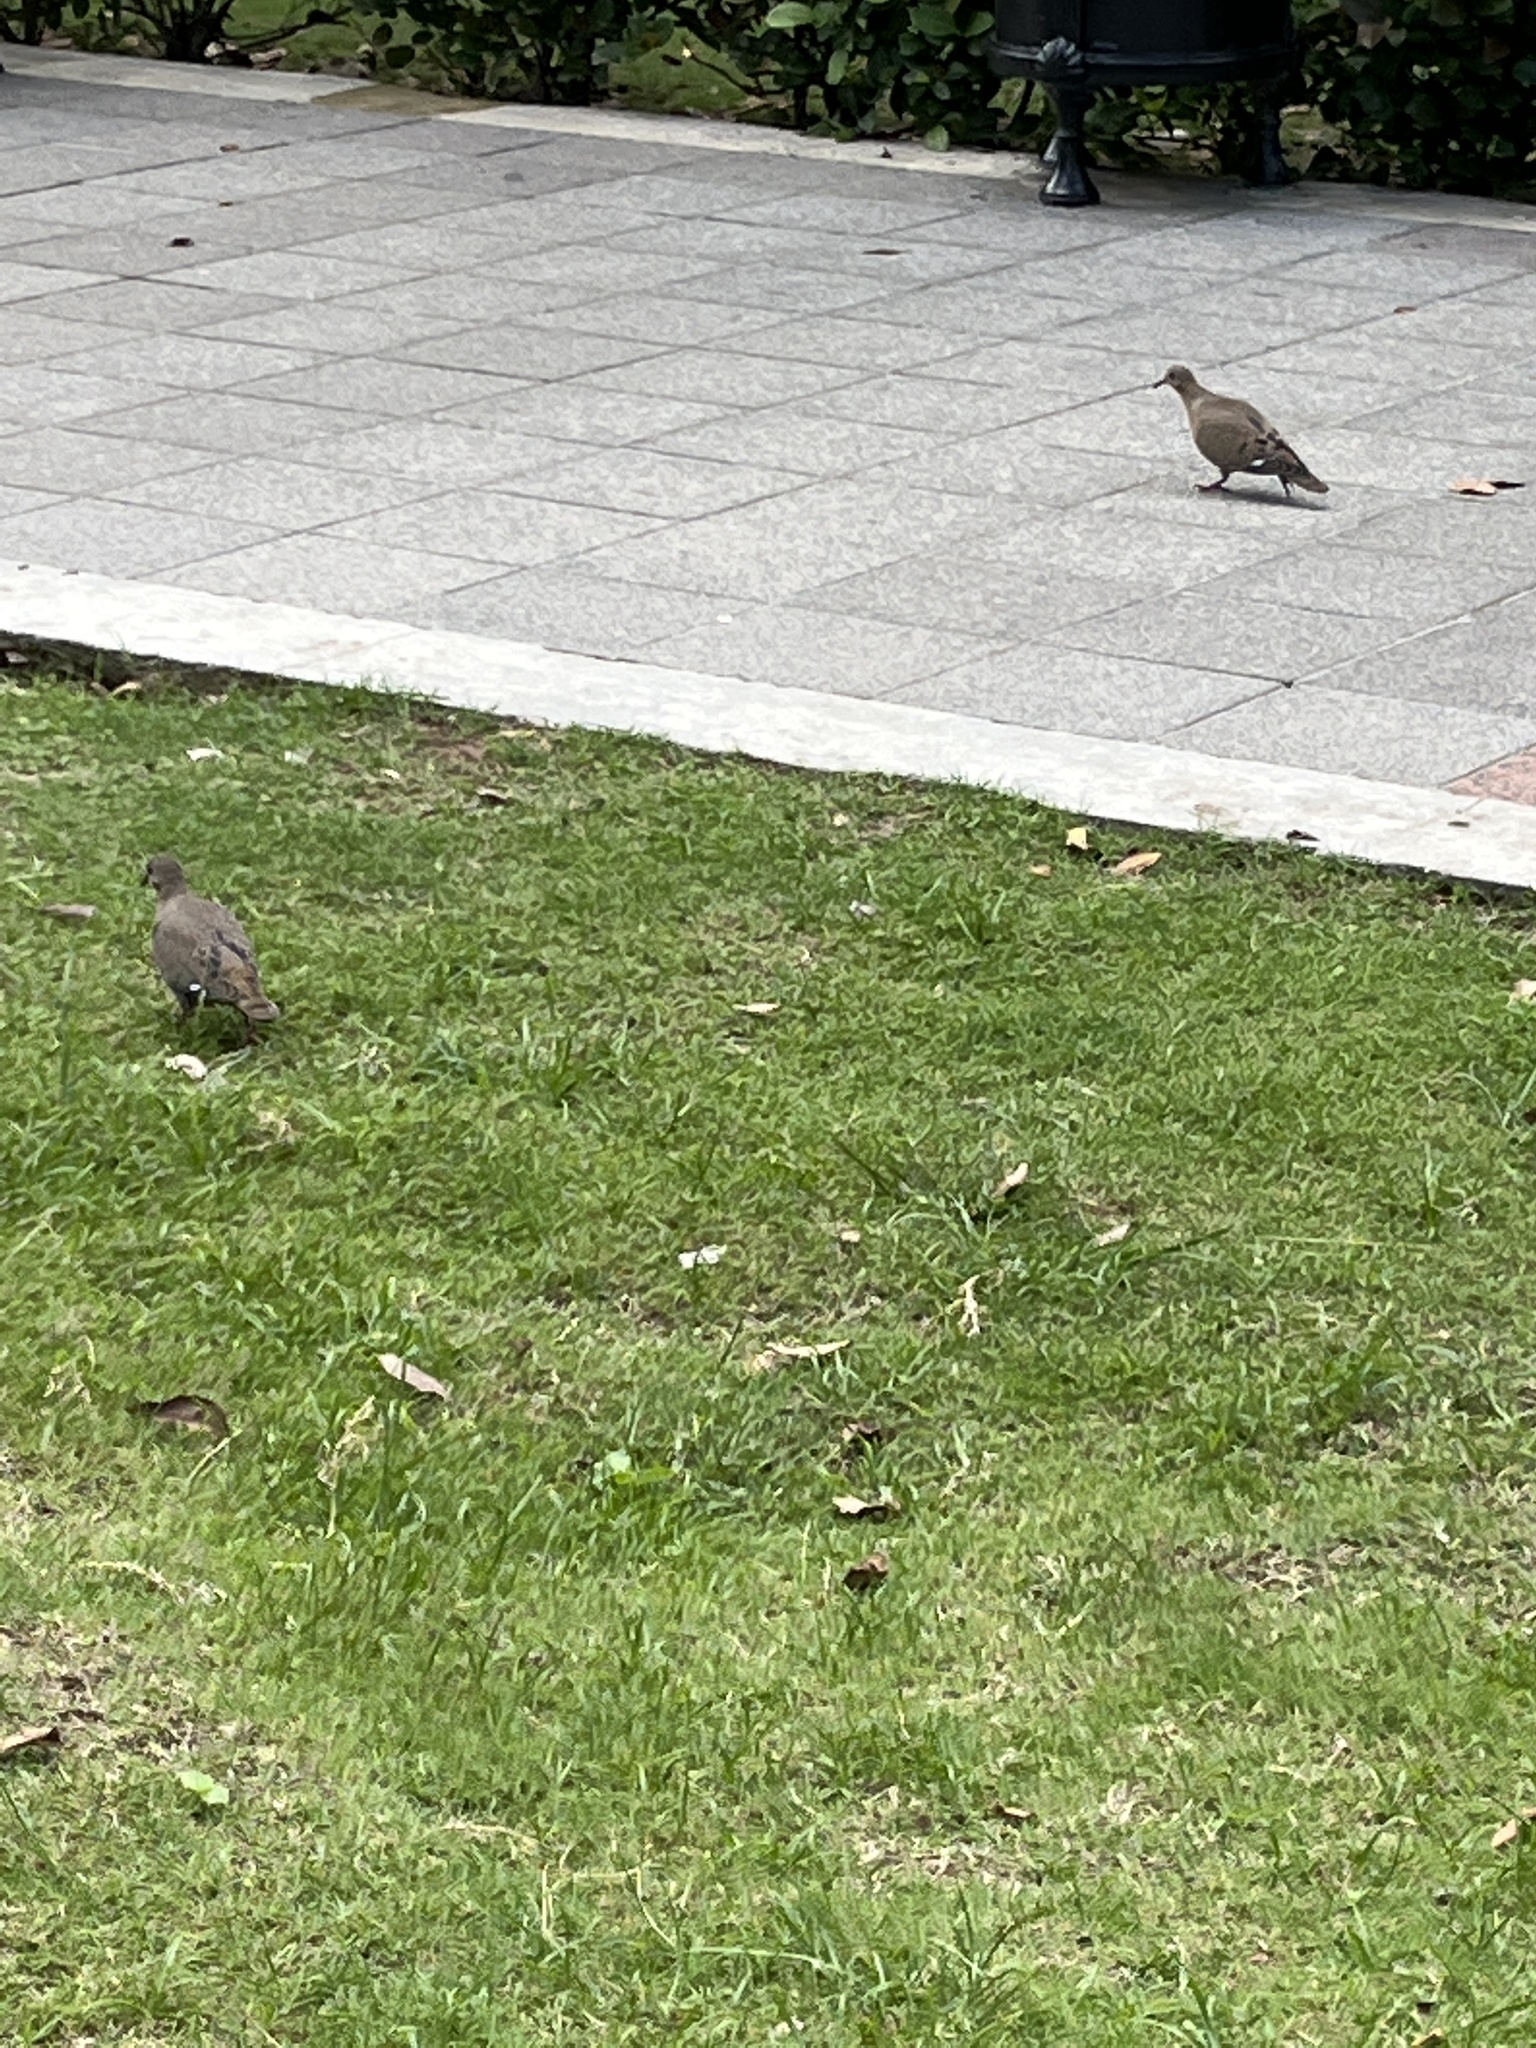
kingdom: Animalia
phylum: Chordata
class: Aves
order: Columbiformes
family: Columbidae
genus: Zenaida
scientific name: Zenaida aurita
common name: Zenaida dove
